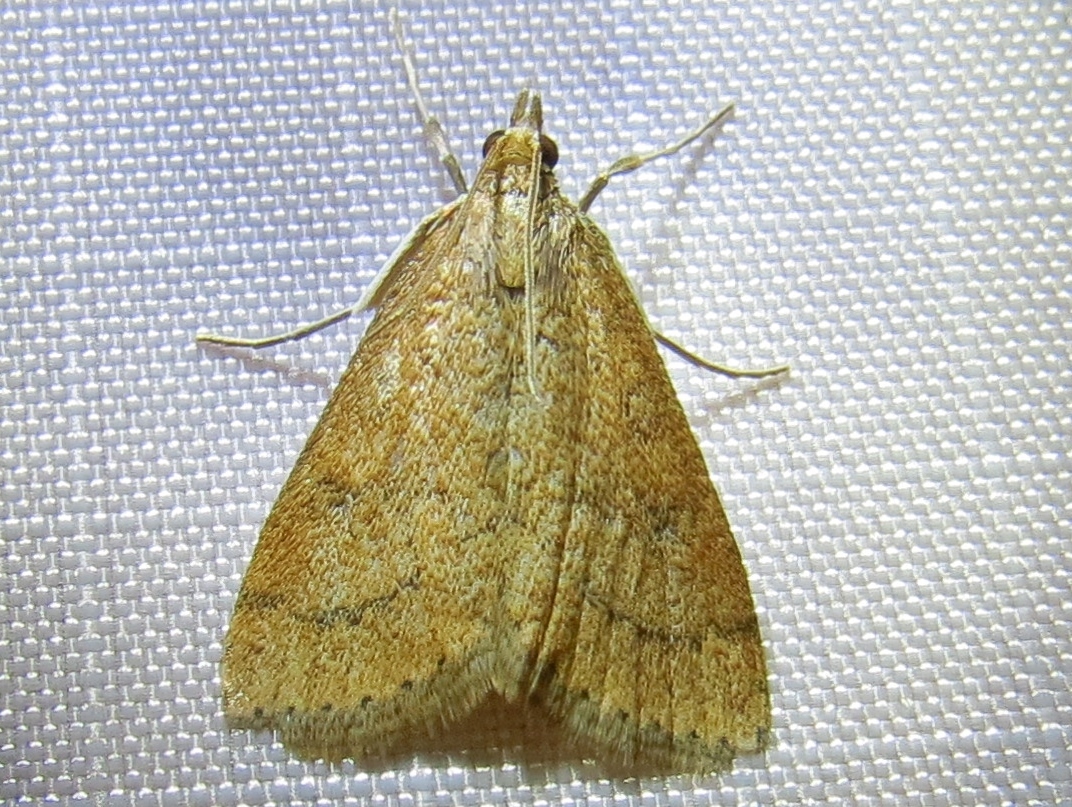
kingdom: Animalia
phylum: Arthropoda
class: Insecta
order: Lepidoptera
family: Crambidae
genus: Udea
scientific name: Udea rubigalis
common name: Celery leaftier moth
